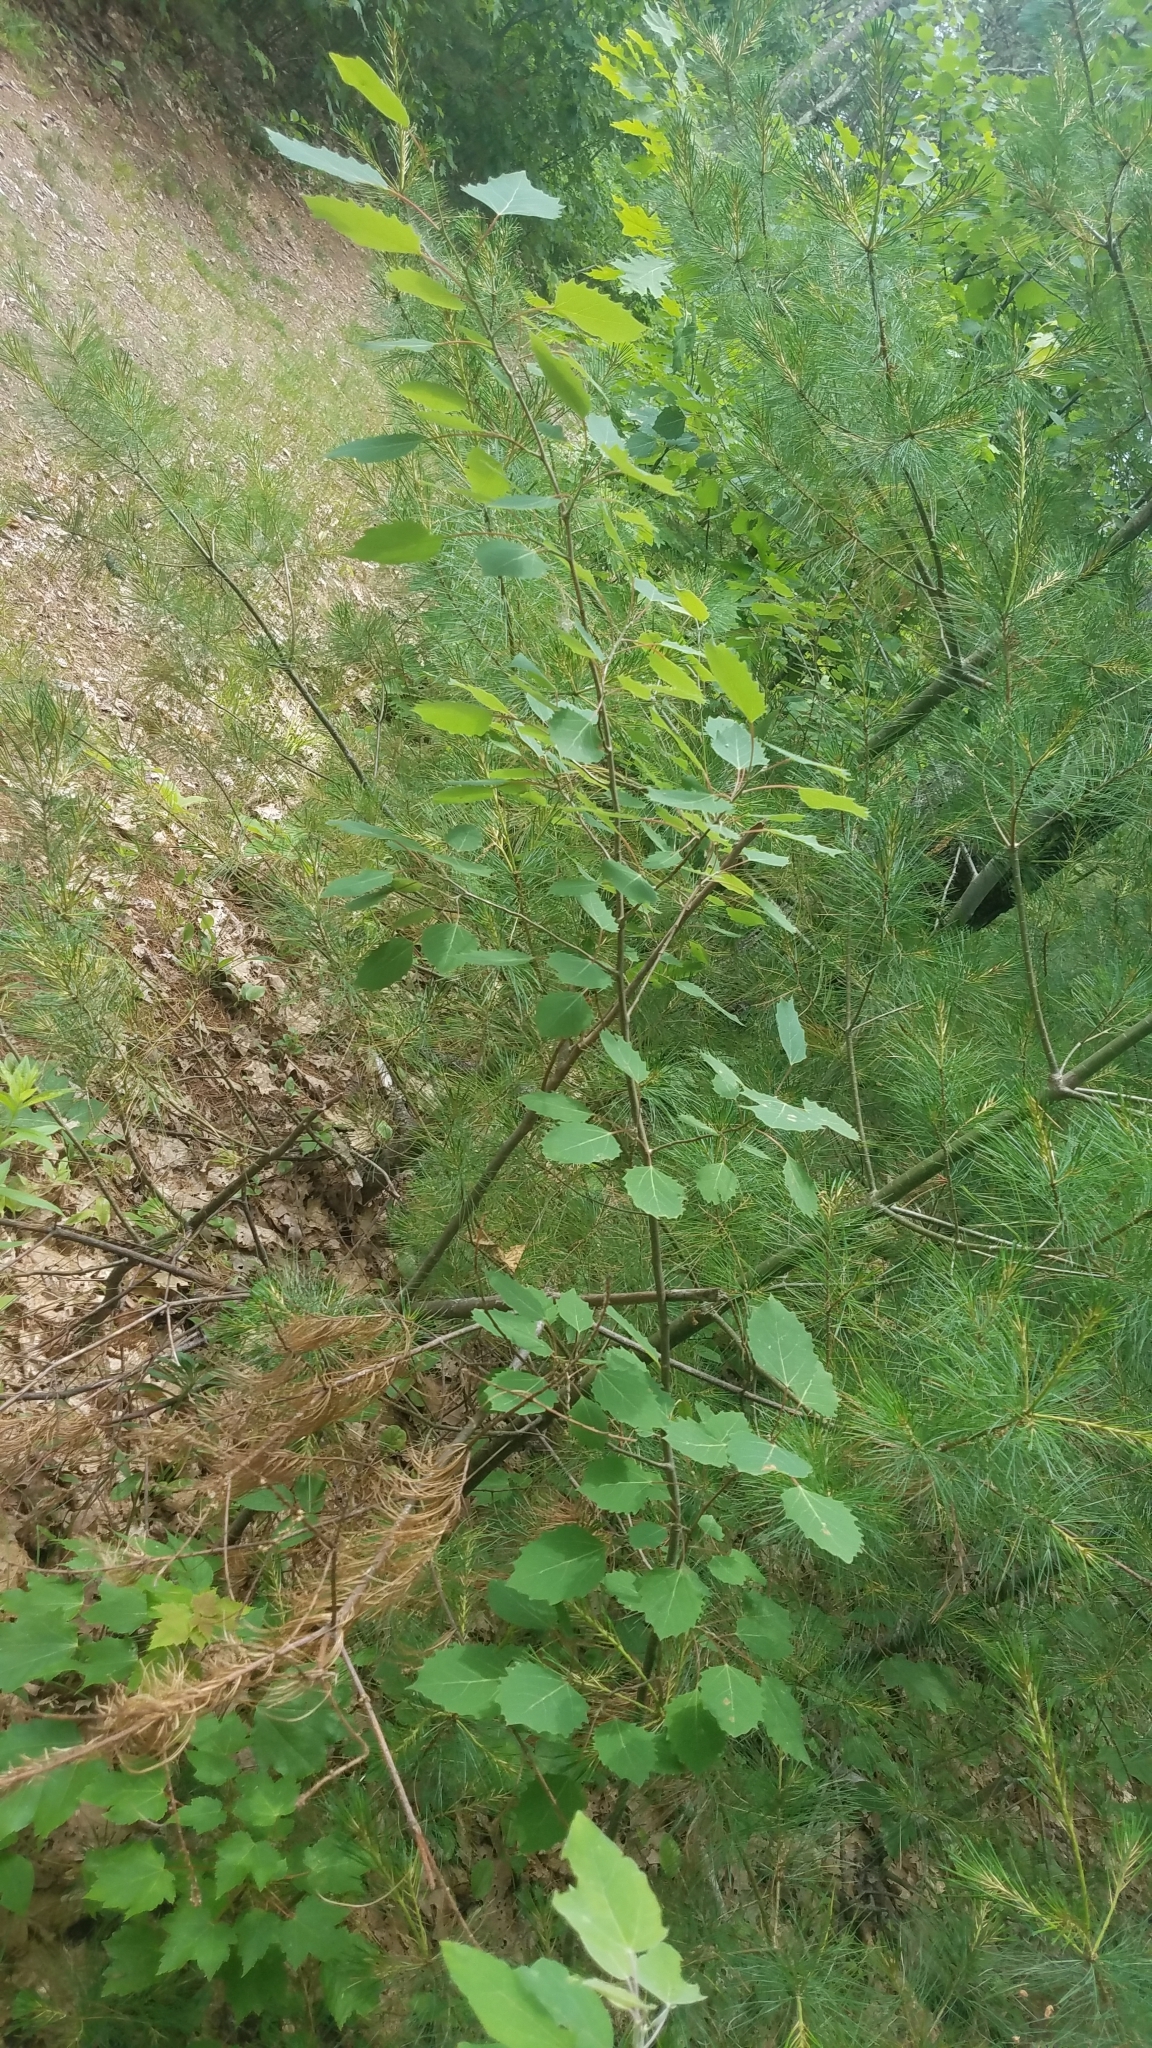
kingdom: Plantae
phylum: Tracheophyta
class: Magnoliopsida
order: Malpighiales
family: Salicaceae
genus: Populus
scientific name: Populus grandidentata
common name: Bigtooth aspen
